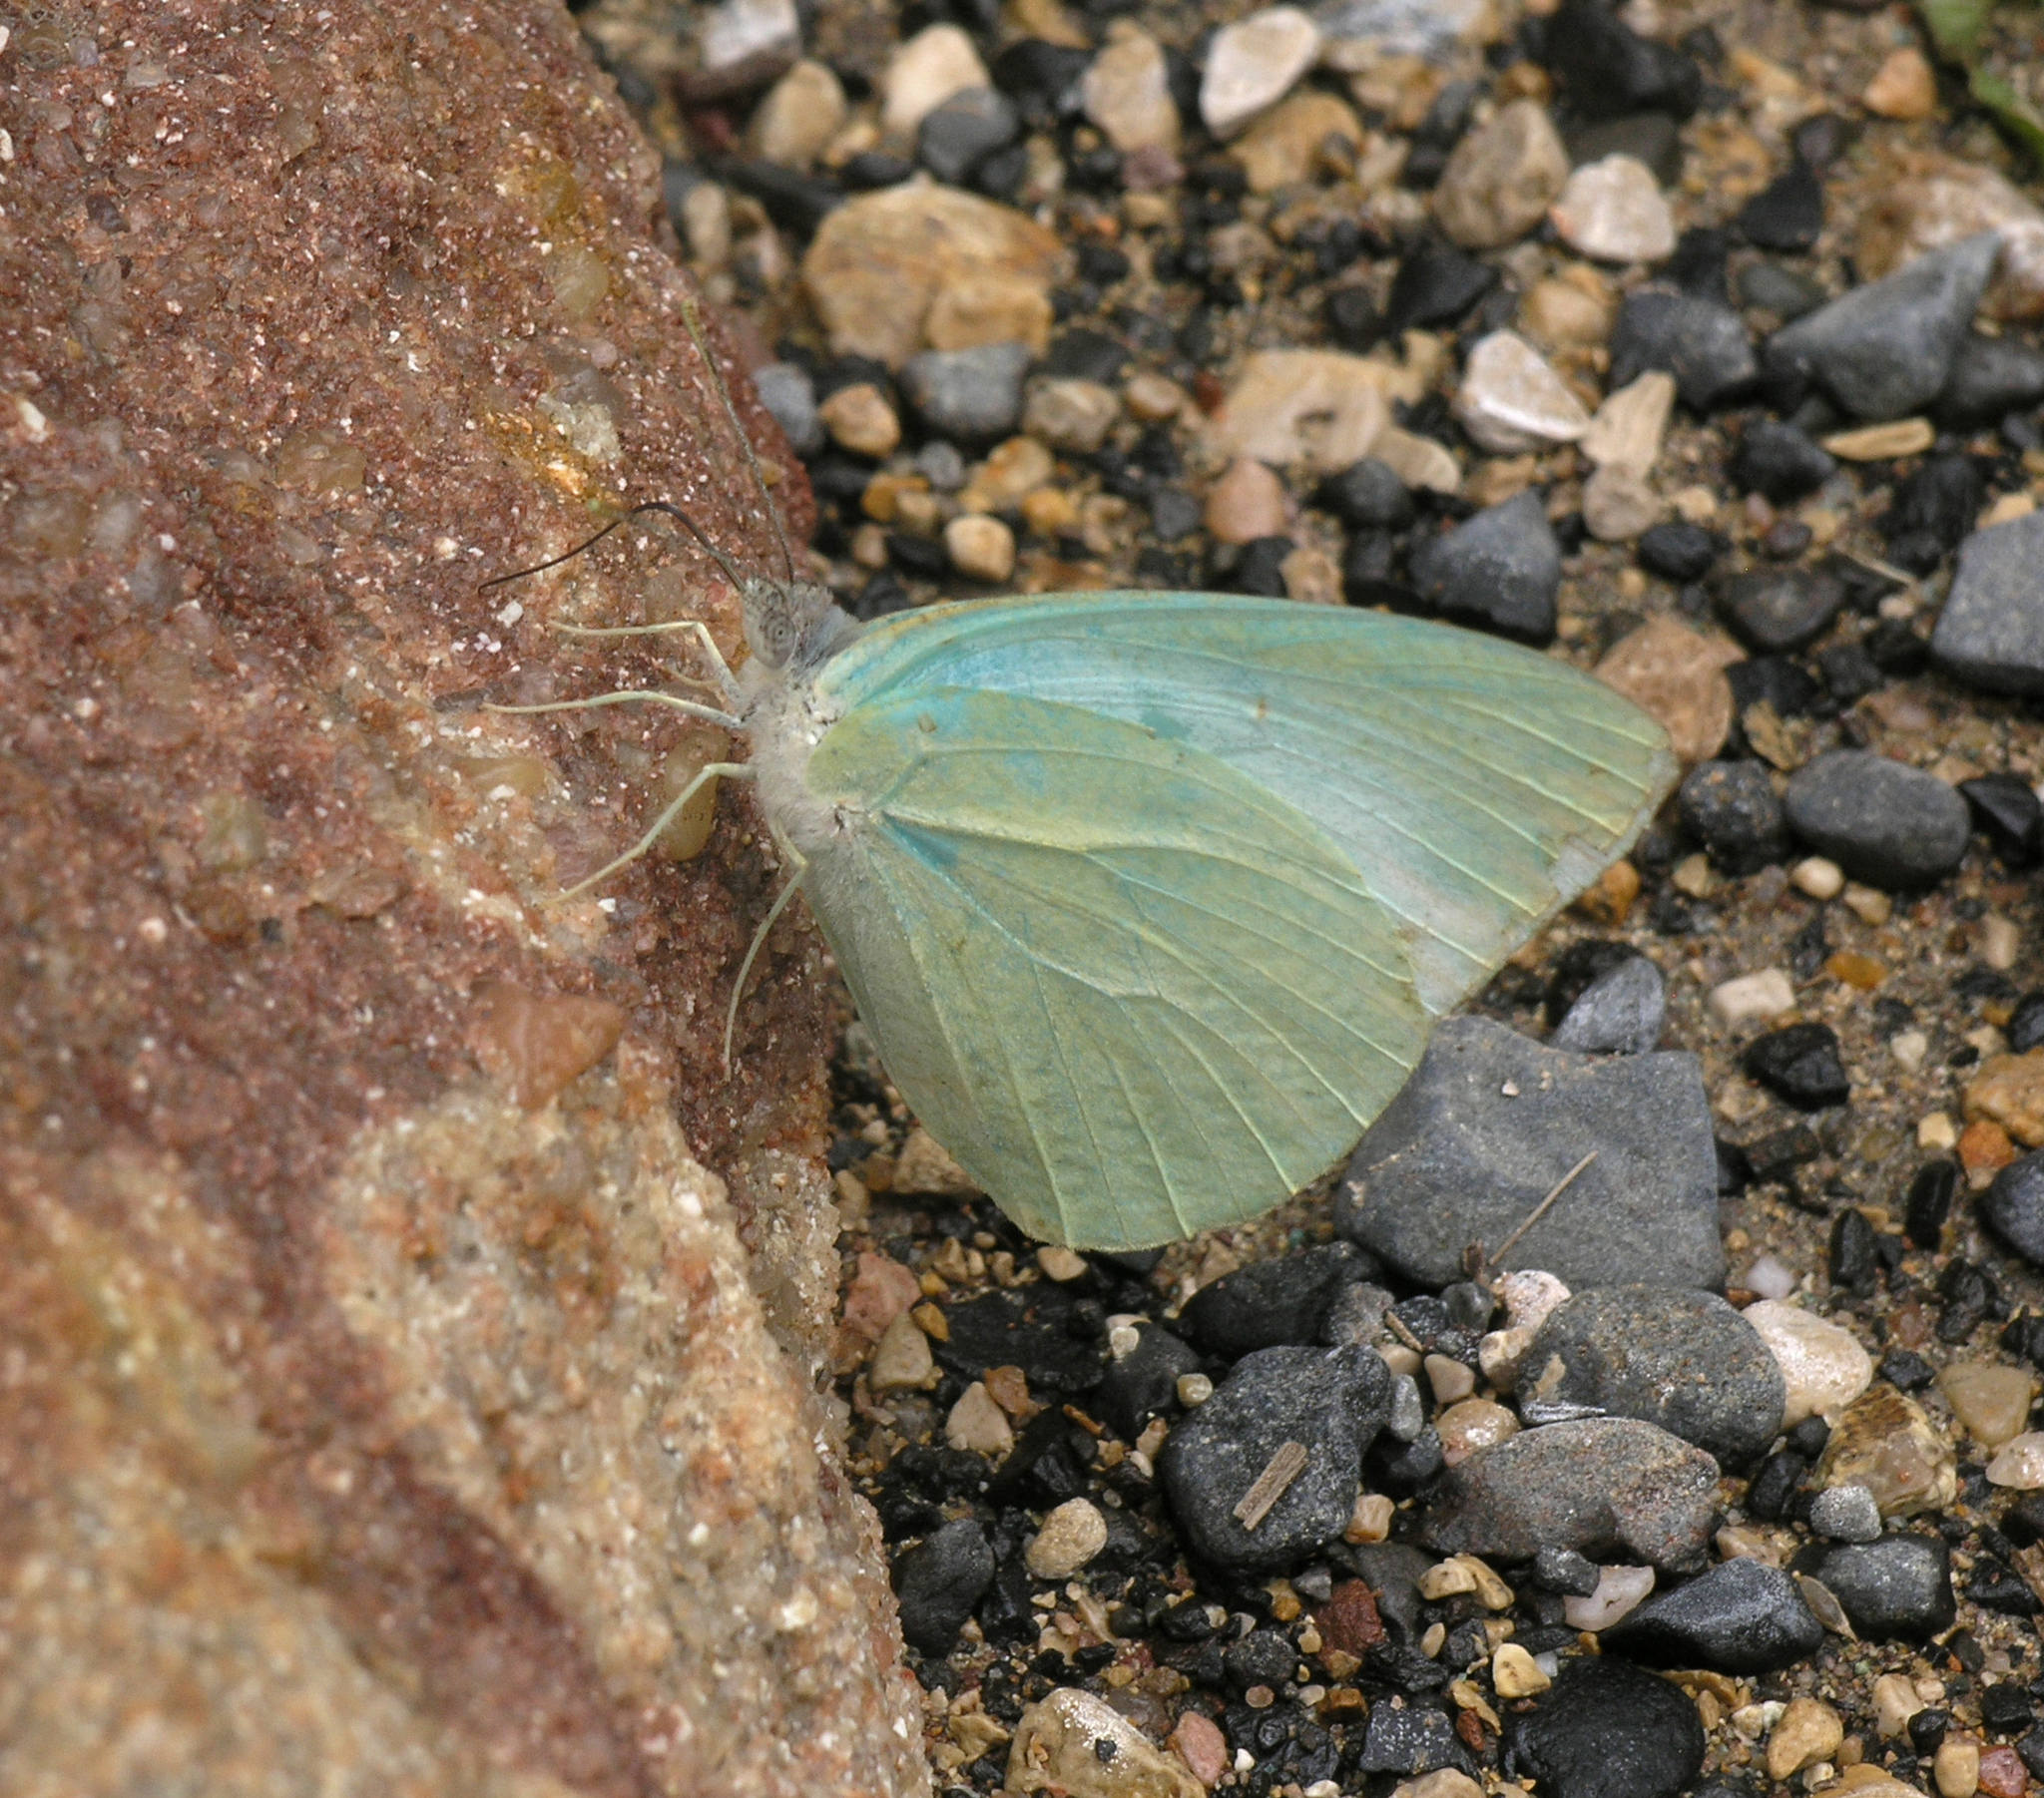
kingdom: Animalia
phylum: Arthropoda
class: Insecta
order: Lepidoptera
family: Pieridae
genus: Catopsilia
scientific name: Catopsilia florella
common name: African migrant
